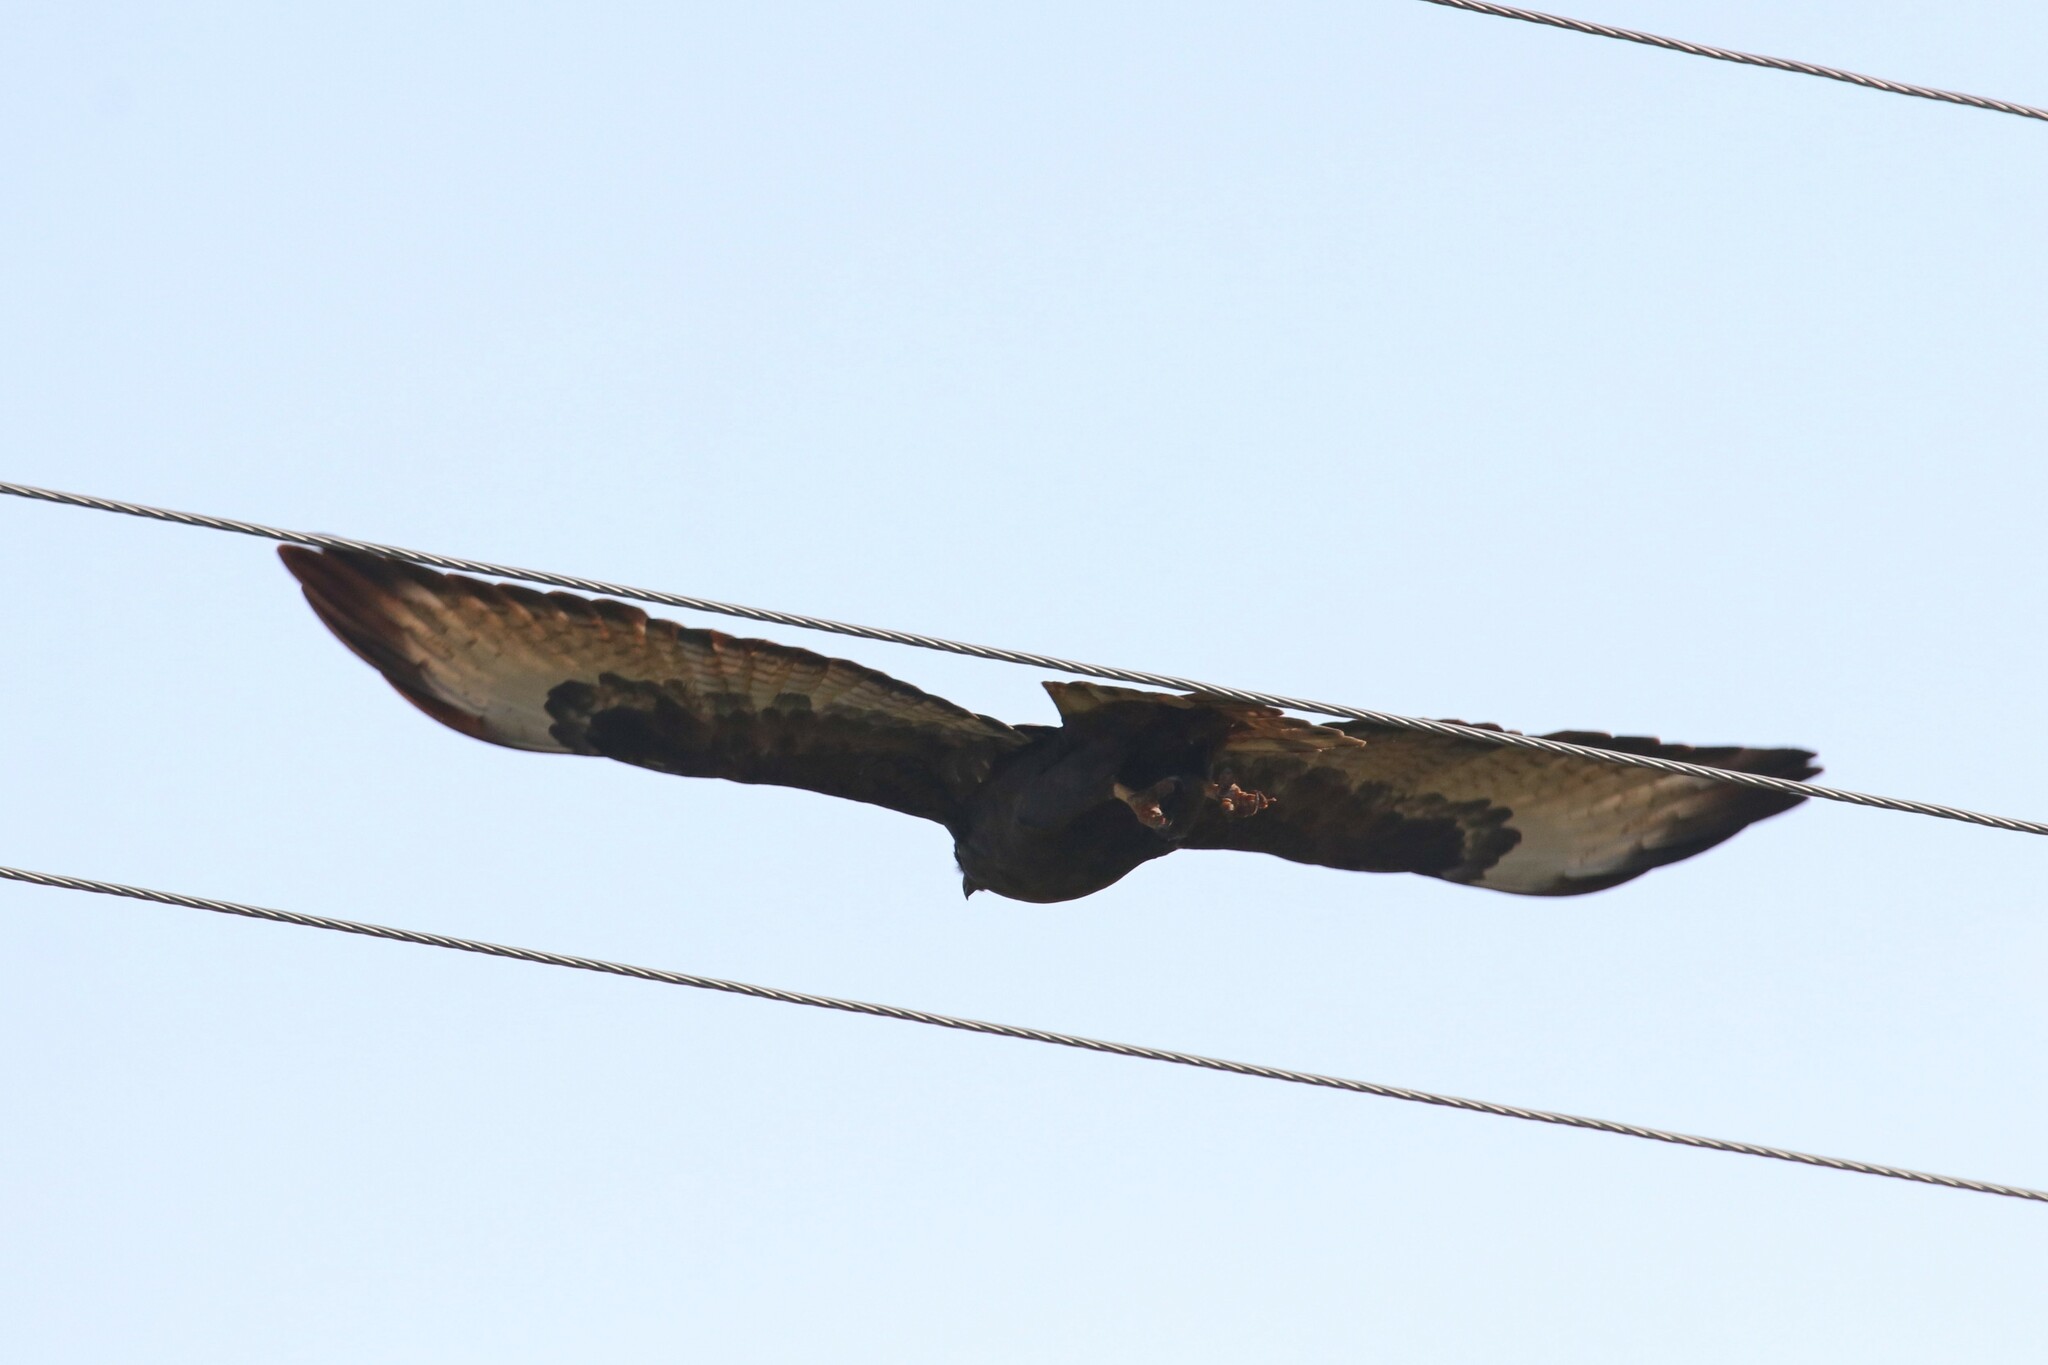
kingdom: Animalia
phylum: Chordata
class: Aves
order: Accipitriformes
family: Accipitridae
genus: Buteo
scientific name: Buteo buteo
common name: Common buzzard
